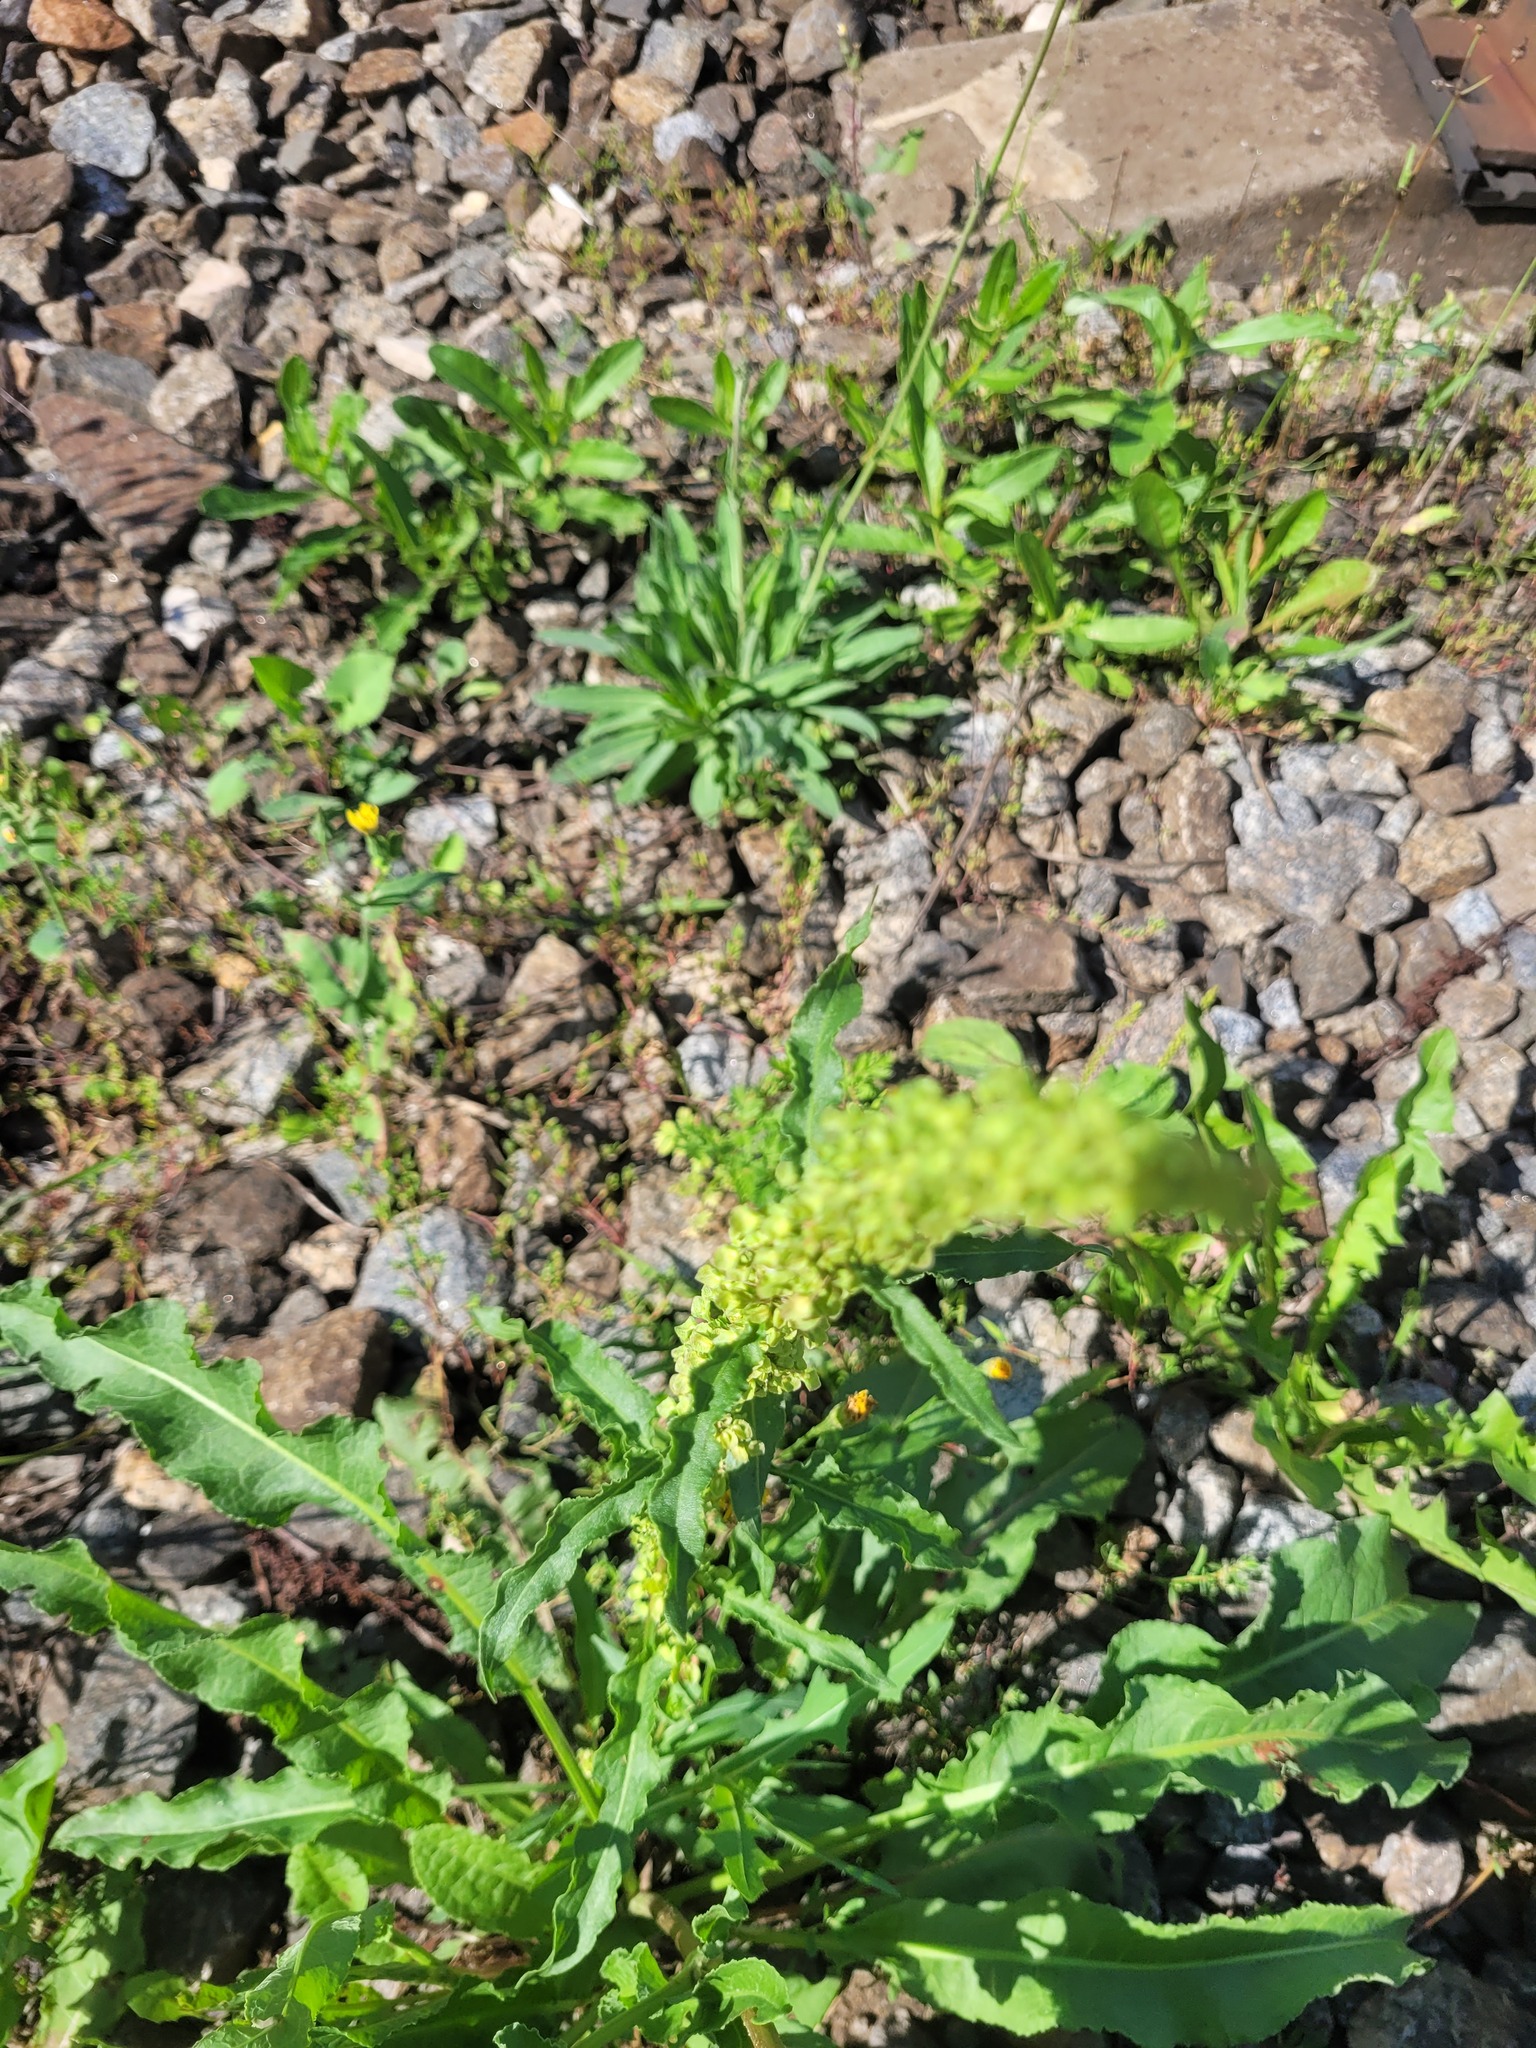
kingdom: Plantae
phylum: Tracheophyta
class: Magnoliopsida
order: Caryophyllales
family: Polygonaceae
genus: Rumex
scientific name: Rumex crispus
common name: Curled dock
